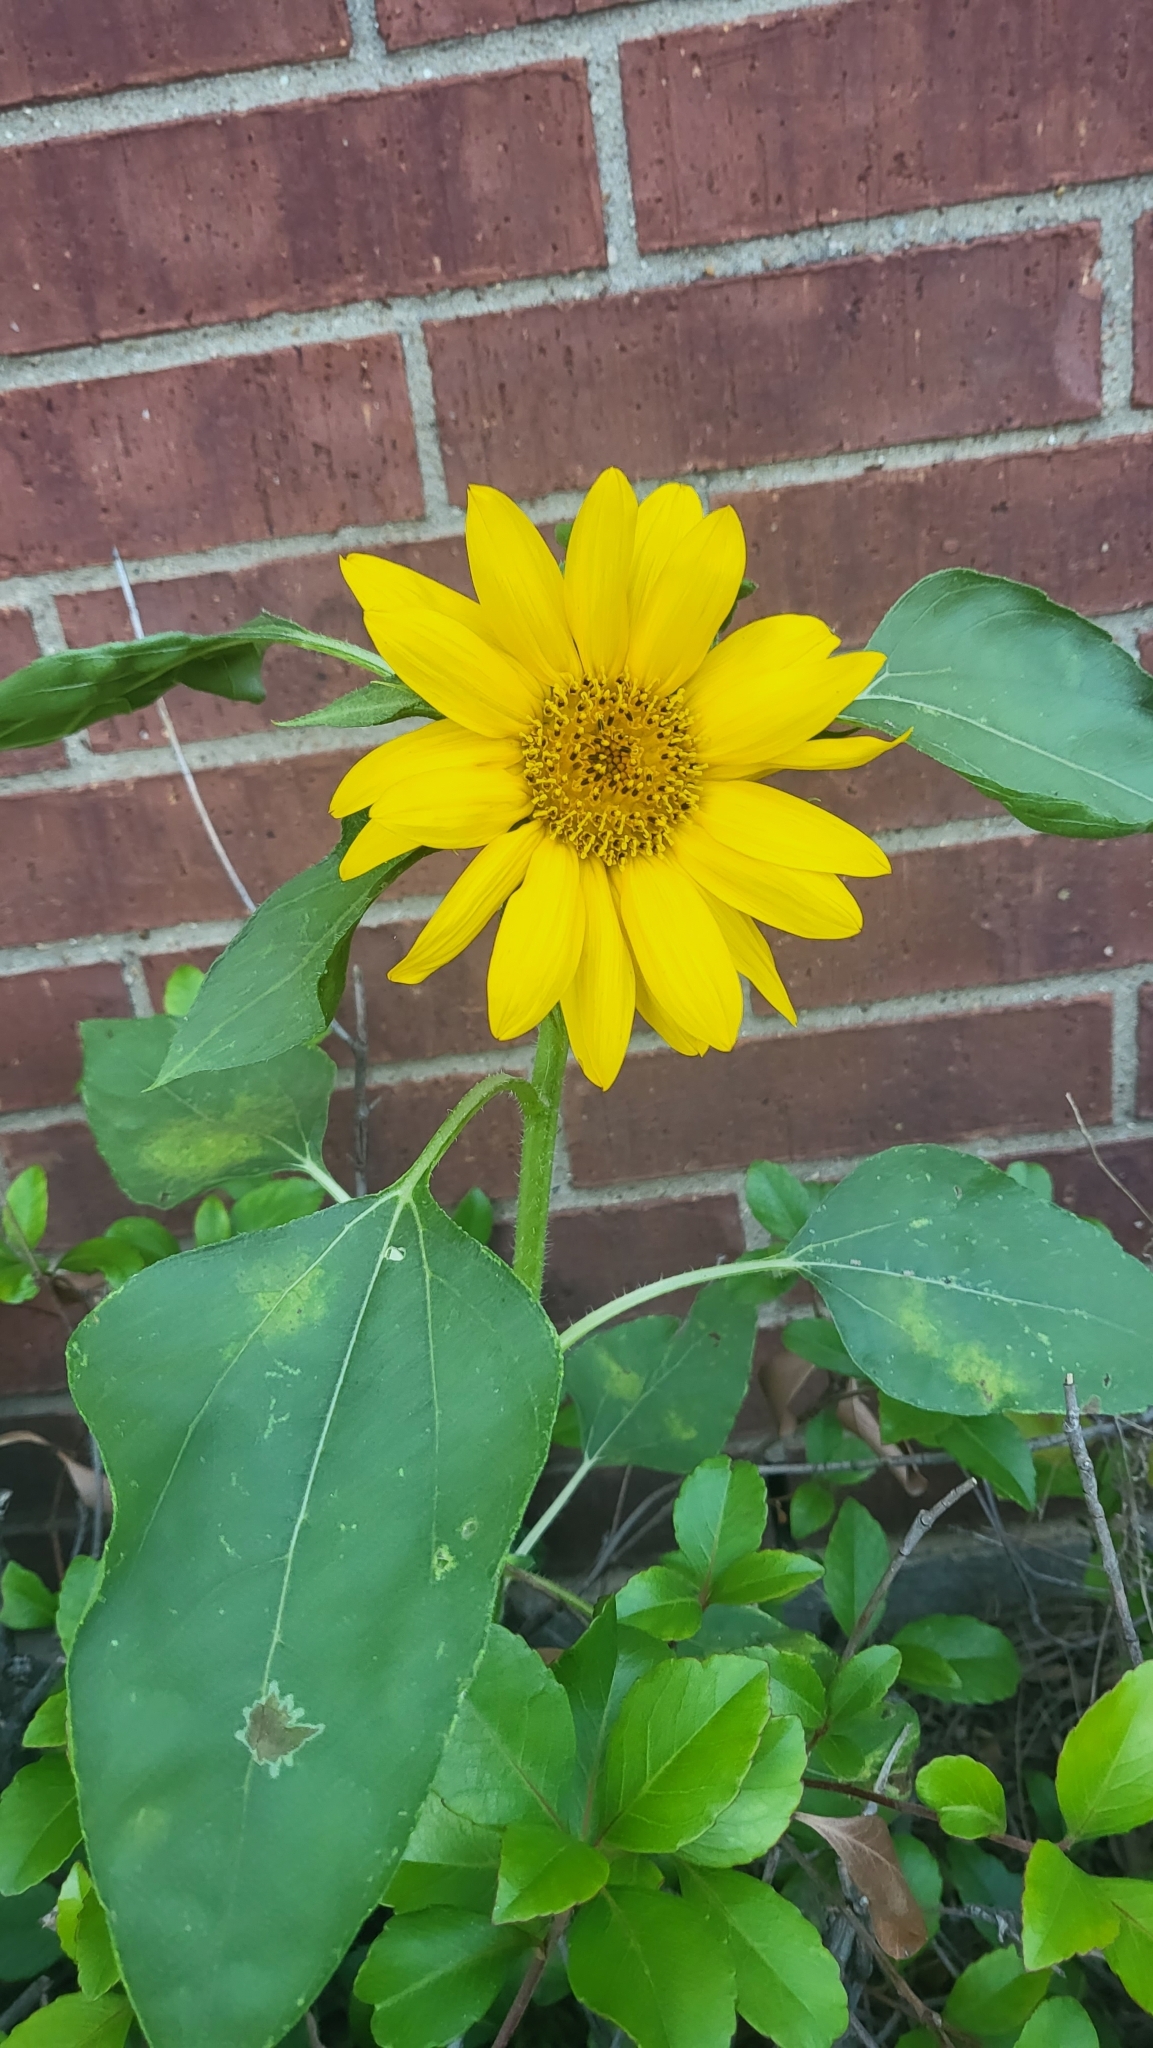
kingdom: Plantae
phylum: Tracheophyta
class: Magnoliopsida
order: Asterales
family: Asteraceae
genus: Helianthus
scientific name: Helianthus annuus
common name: Sunflower
